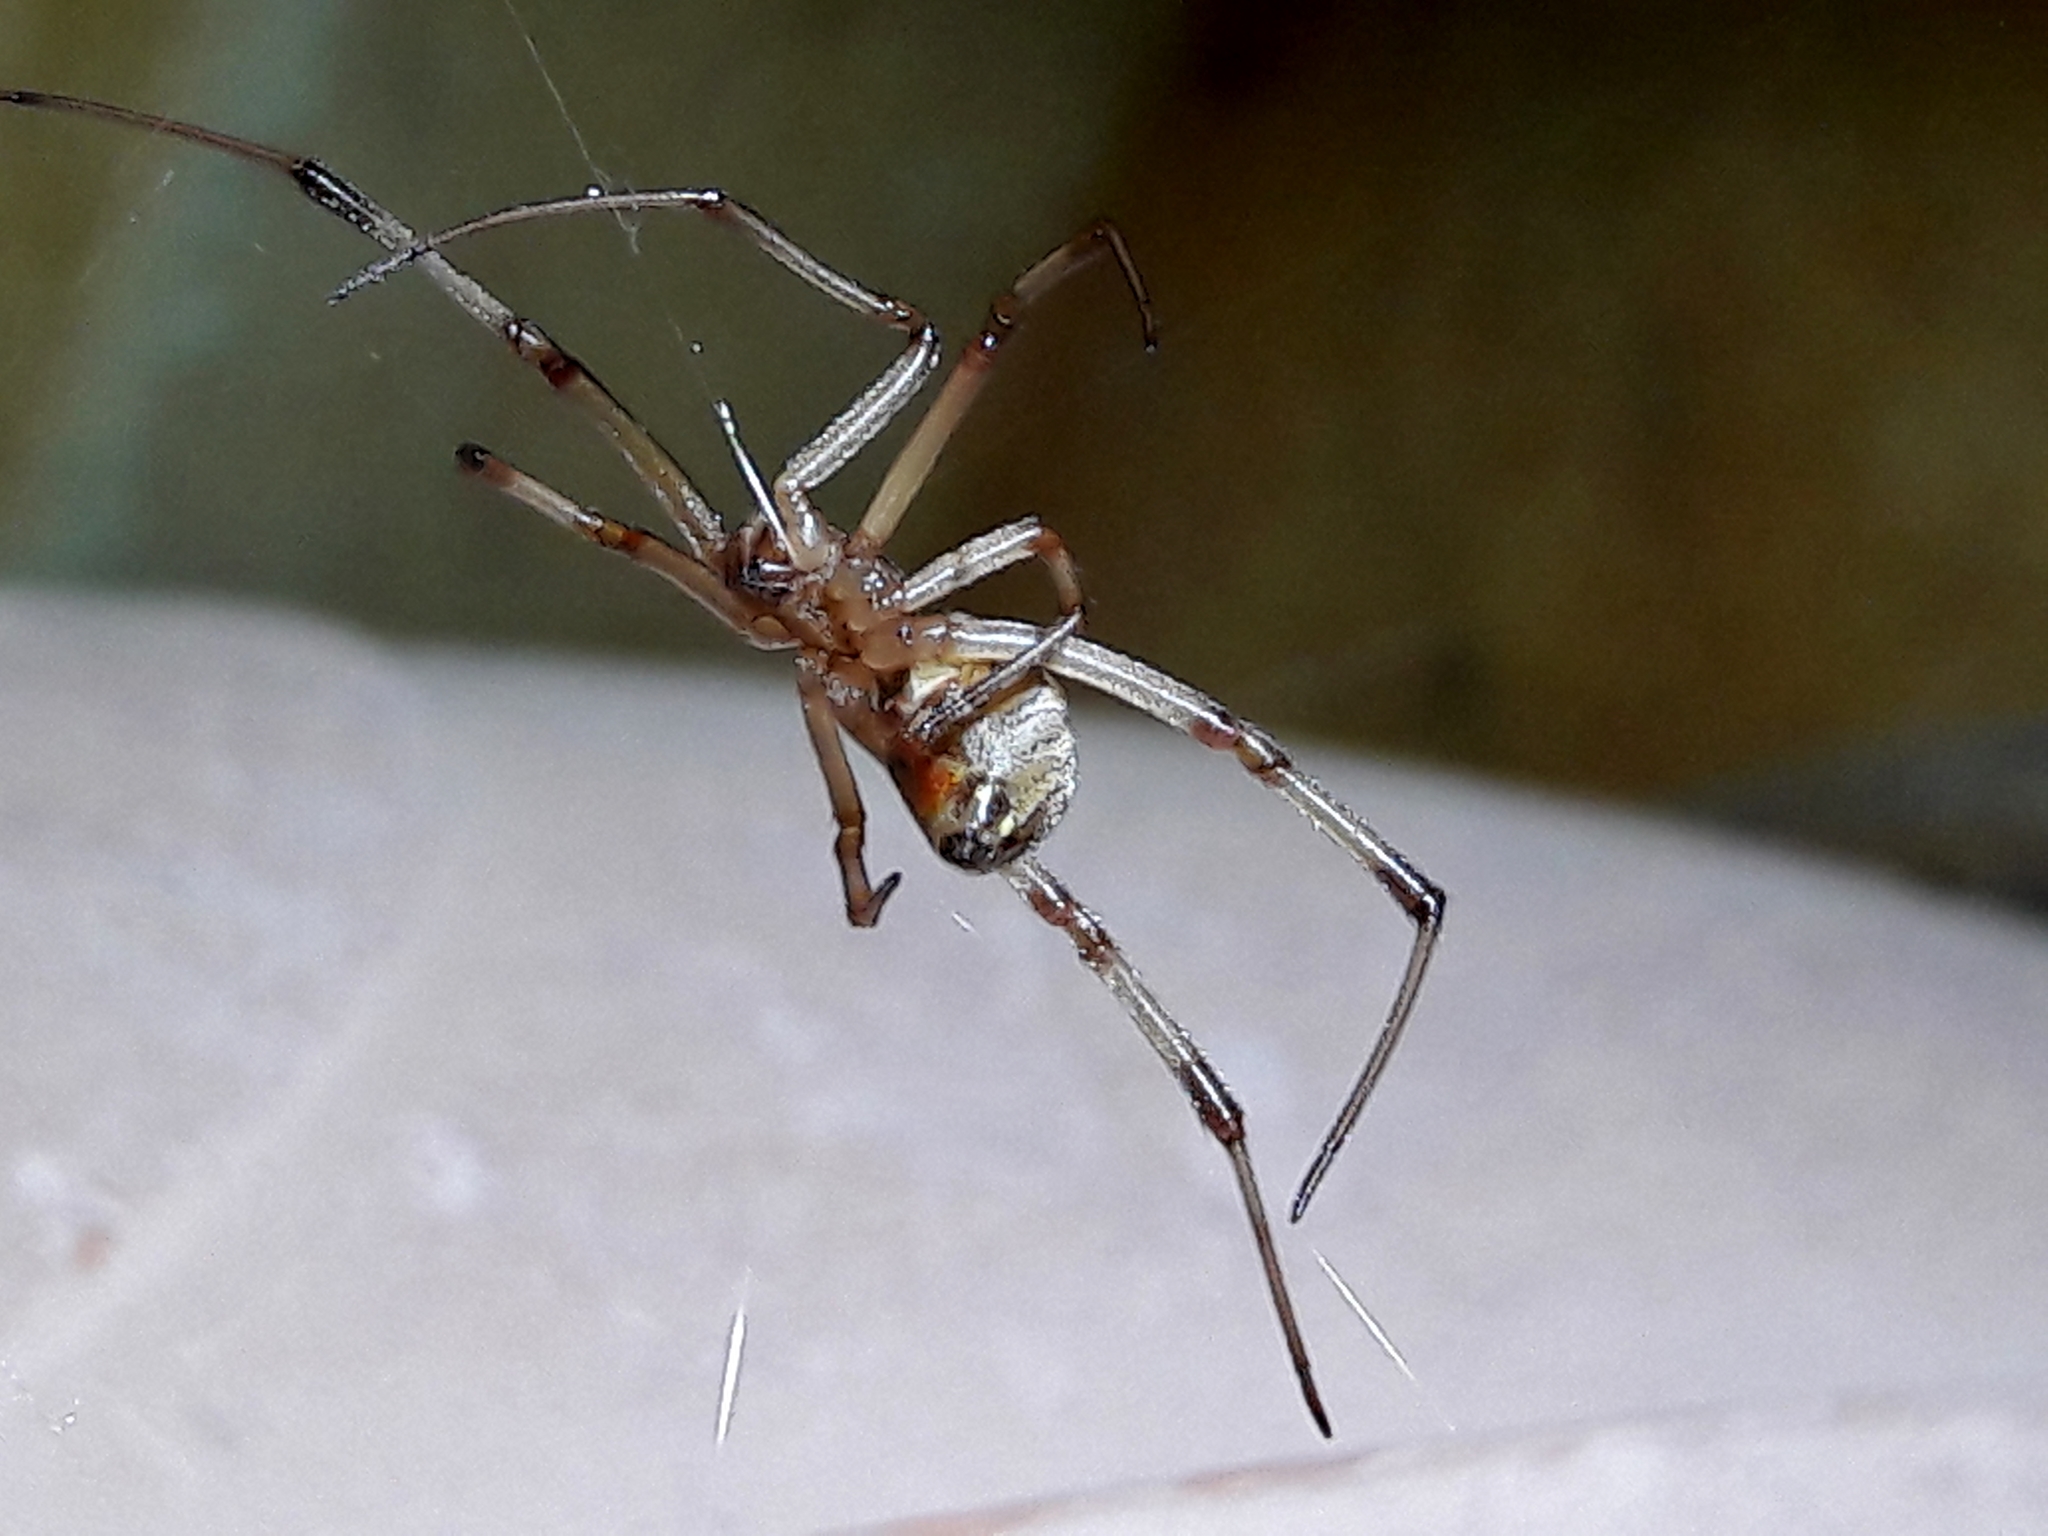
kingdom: Animalia
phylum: Arthropoda
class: Arachnida
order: Araneae
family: Theridiidae
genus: Latrodectus
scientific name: Latrodectus geometricus
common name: Brown widow spider
